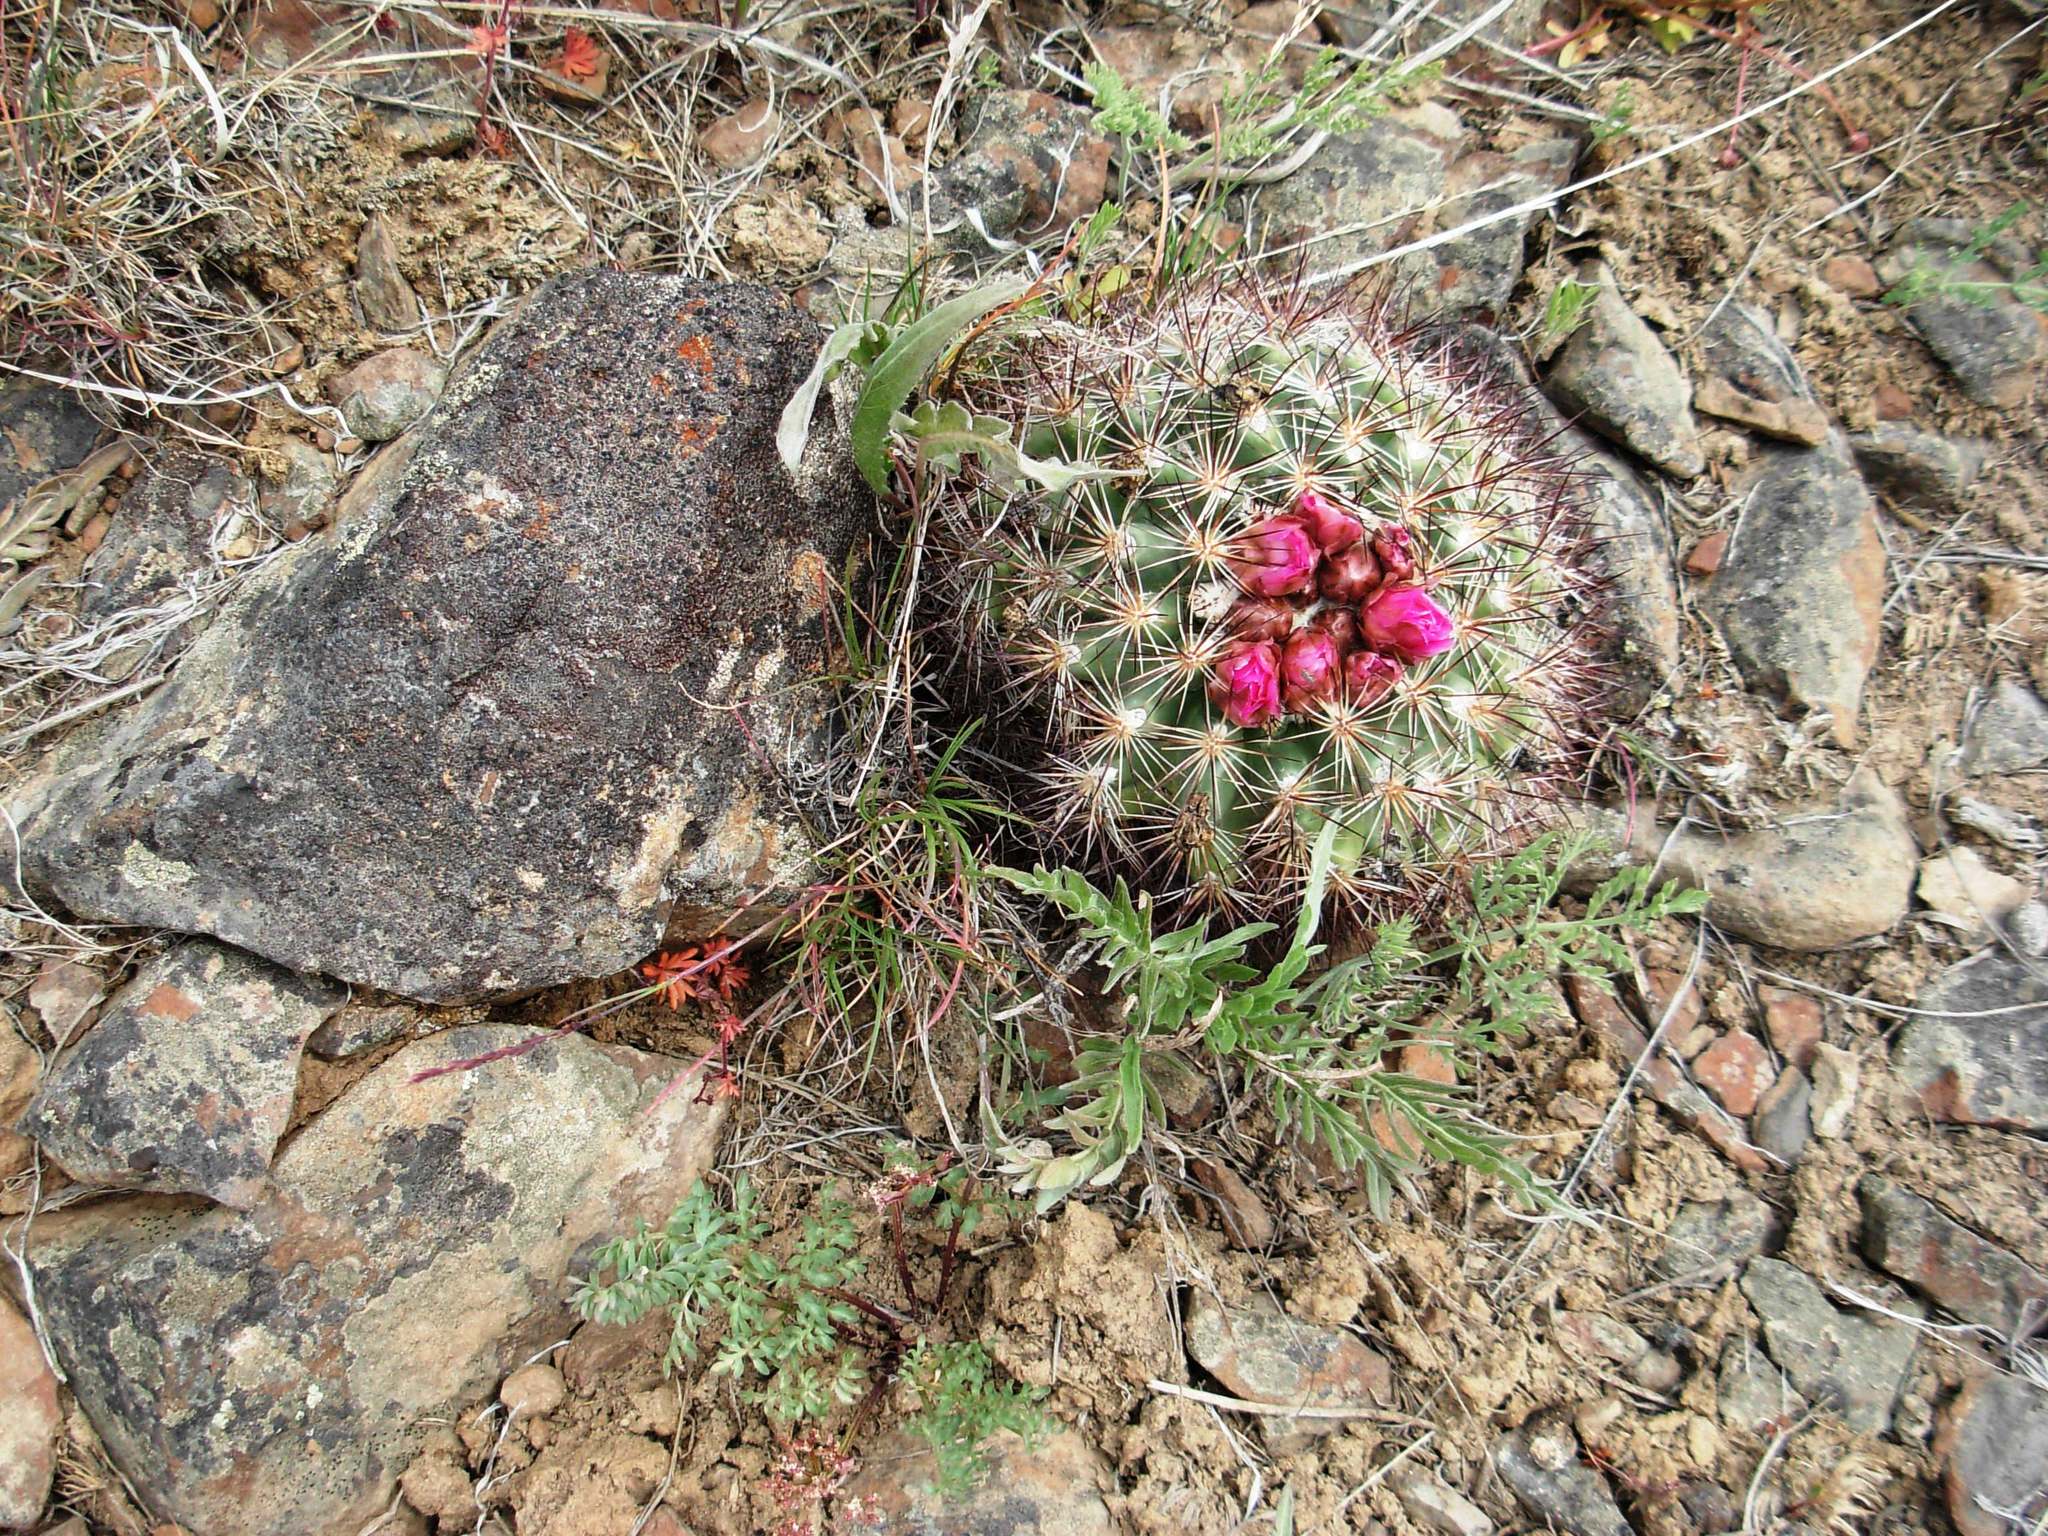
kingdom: Plantae
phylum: Tracheophyta
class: Magnoliopsida
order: Caryophyllales
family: Cactaceae
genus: Pediocactus
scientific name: Pediocactus nigrispinus
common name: Simpson's hedgehog cactus
